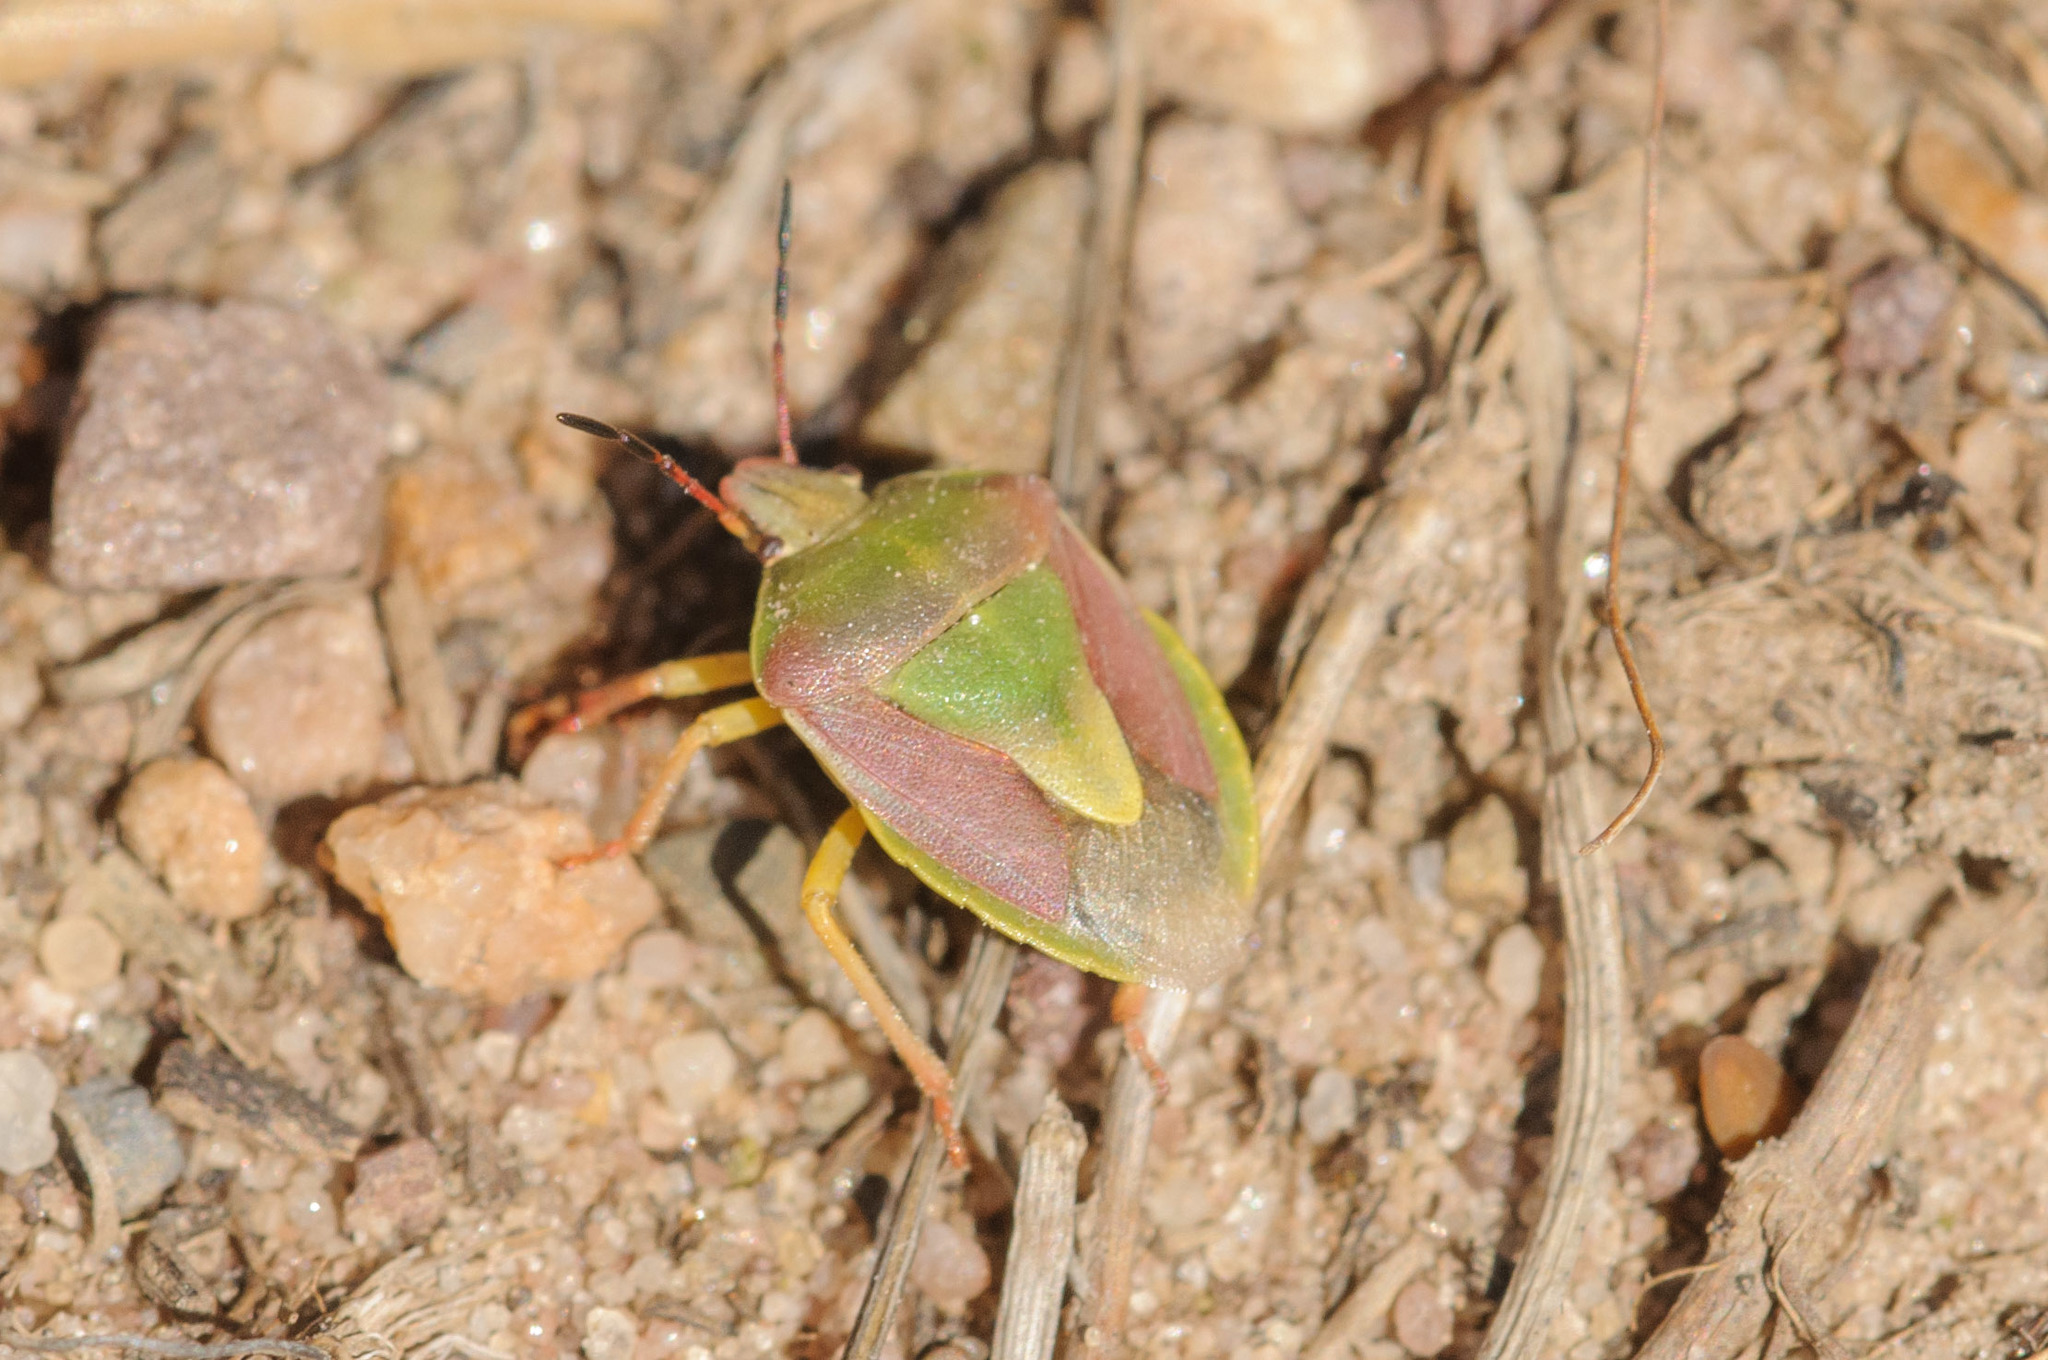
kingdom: Animalia
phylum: Arthropoda
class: Insecta
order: Hemiptera
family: Pentatomidae
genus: Antheminia
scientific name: Antheminia
